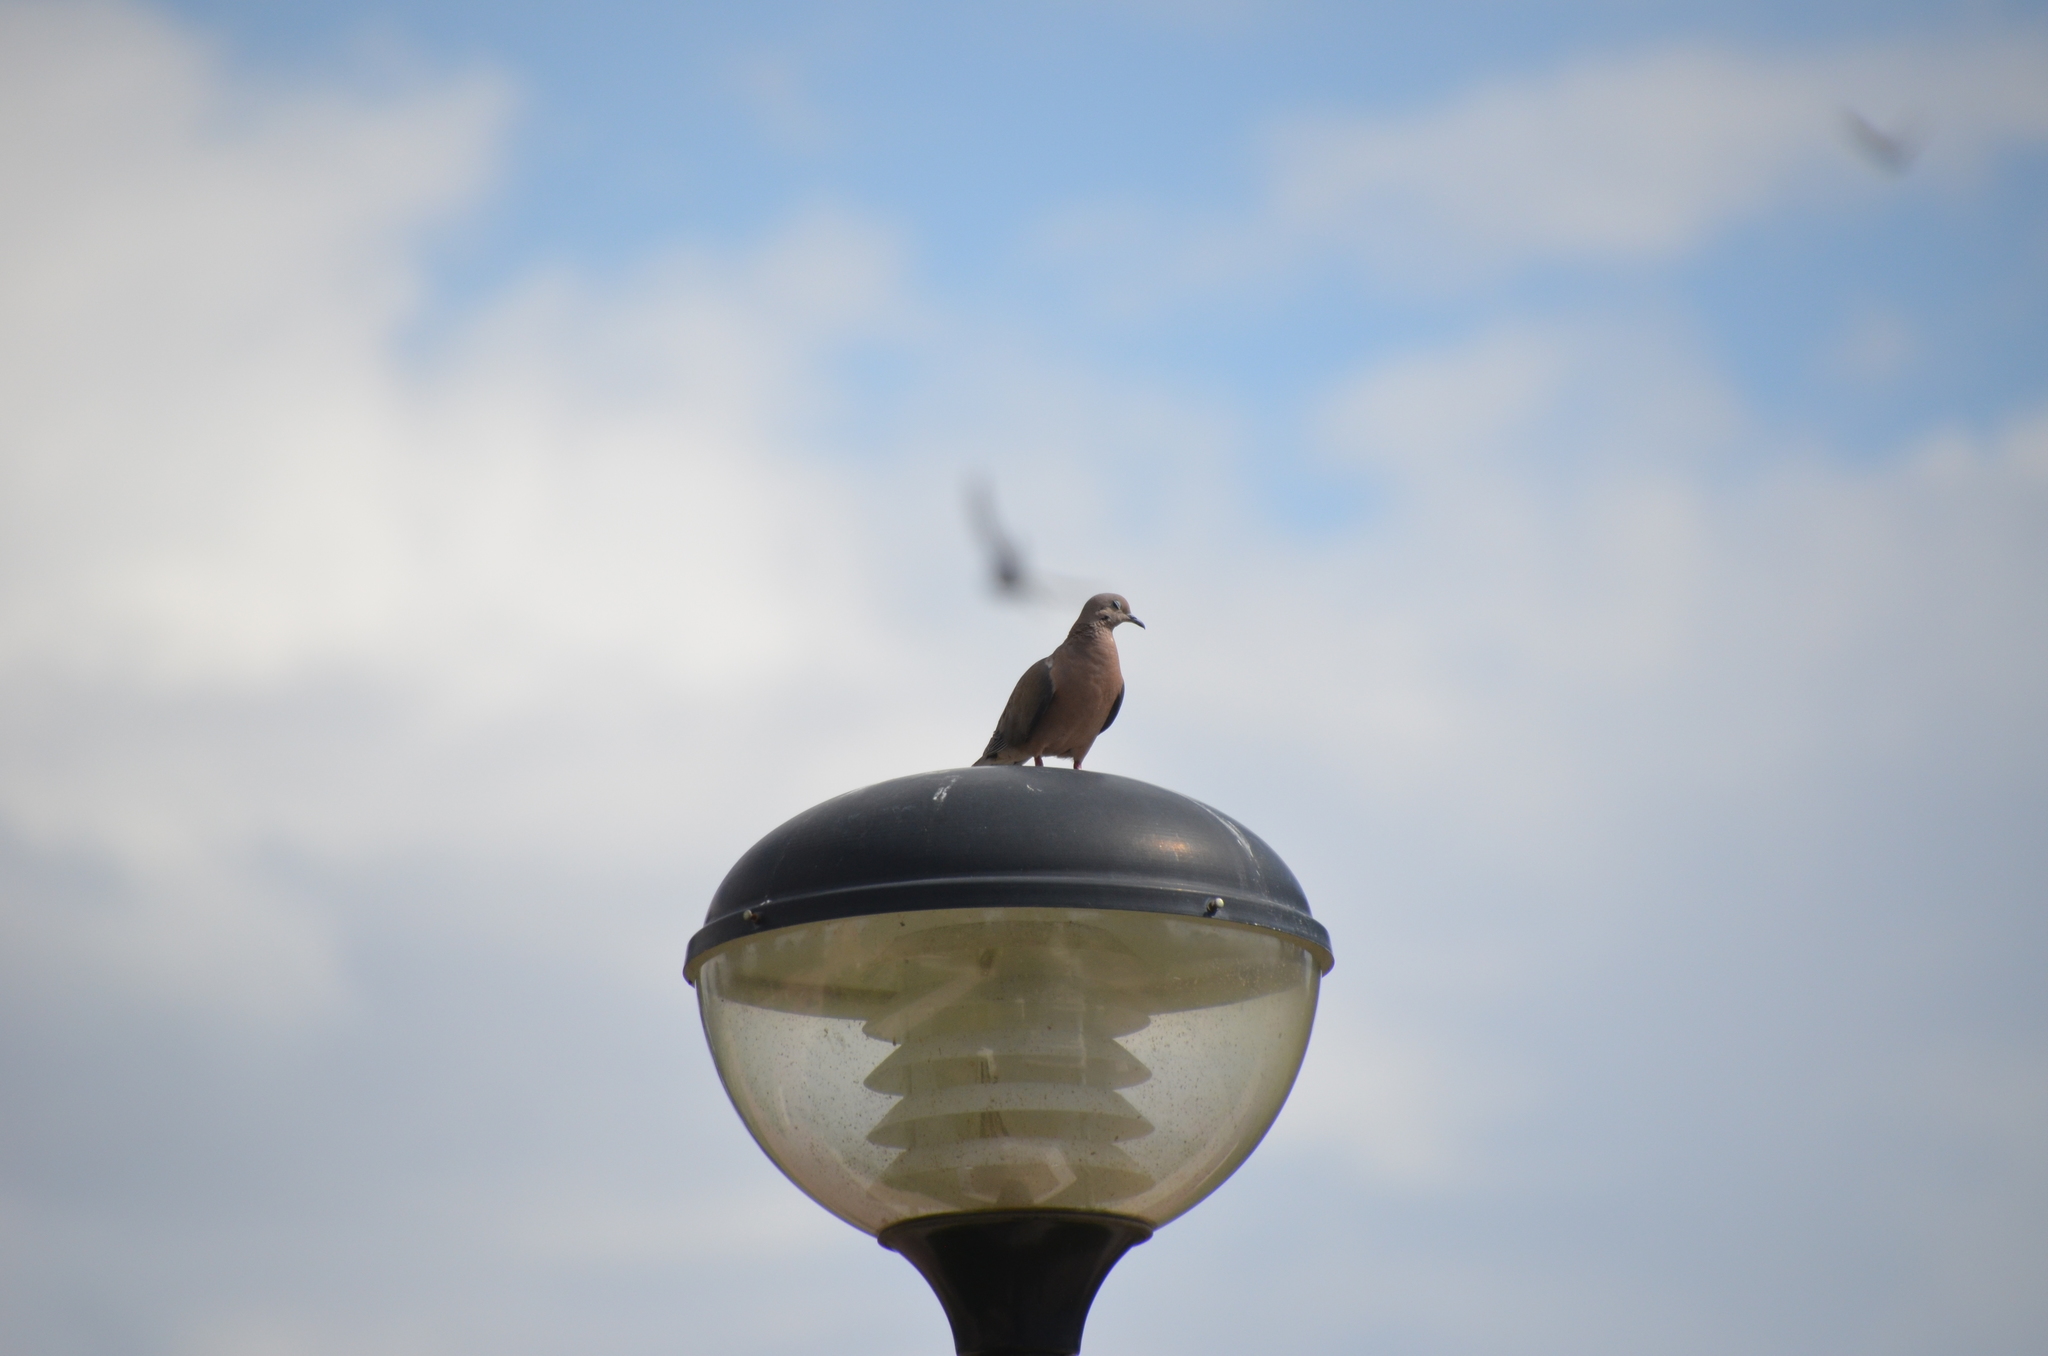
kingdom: Animalia
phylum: Chordata
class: Aves
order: Columbiformes
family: Columbidae
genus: Zenaida
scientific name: Zenaida auriculata
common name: Eared dove
